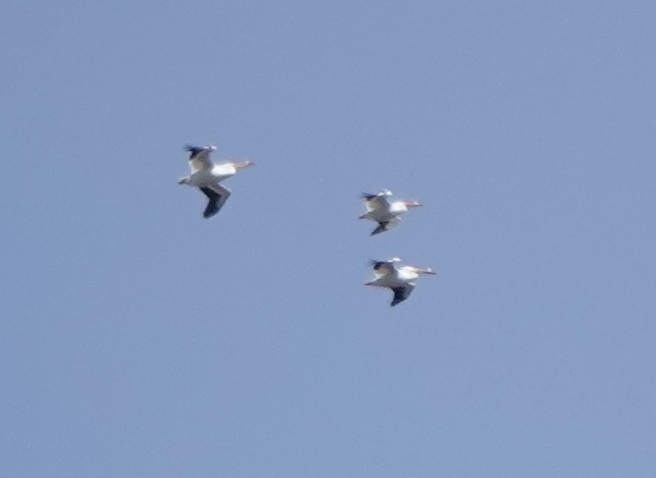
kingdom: Animalia
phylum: Chordata
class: Aves
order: Pelecaniformes
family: Pelecanidae
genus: Pelecanus
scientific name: Pelecanus erythrorhynchos
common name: American white pelican
